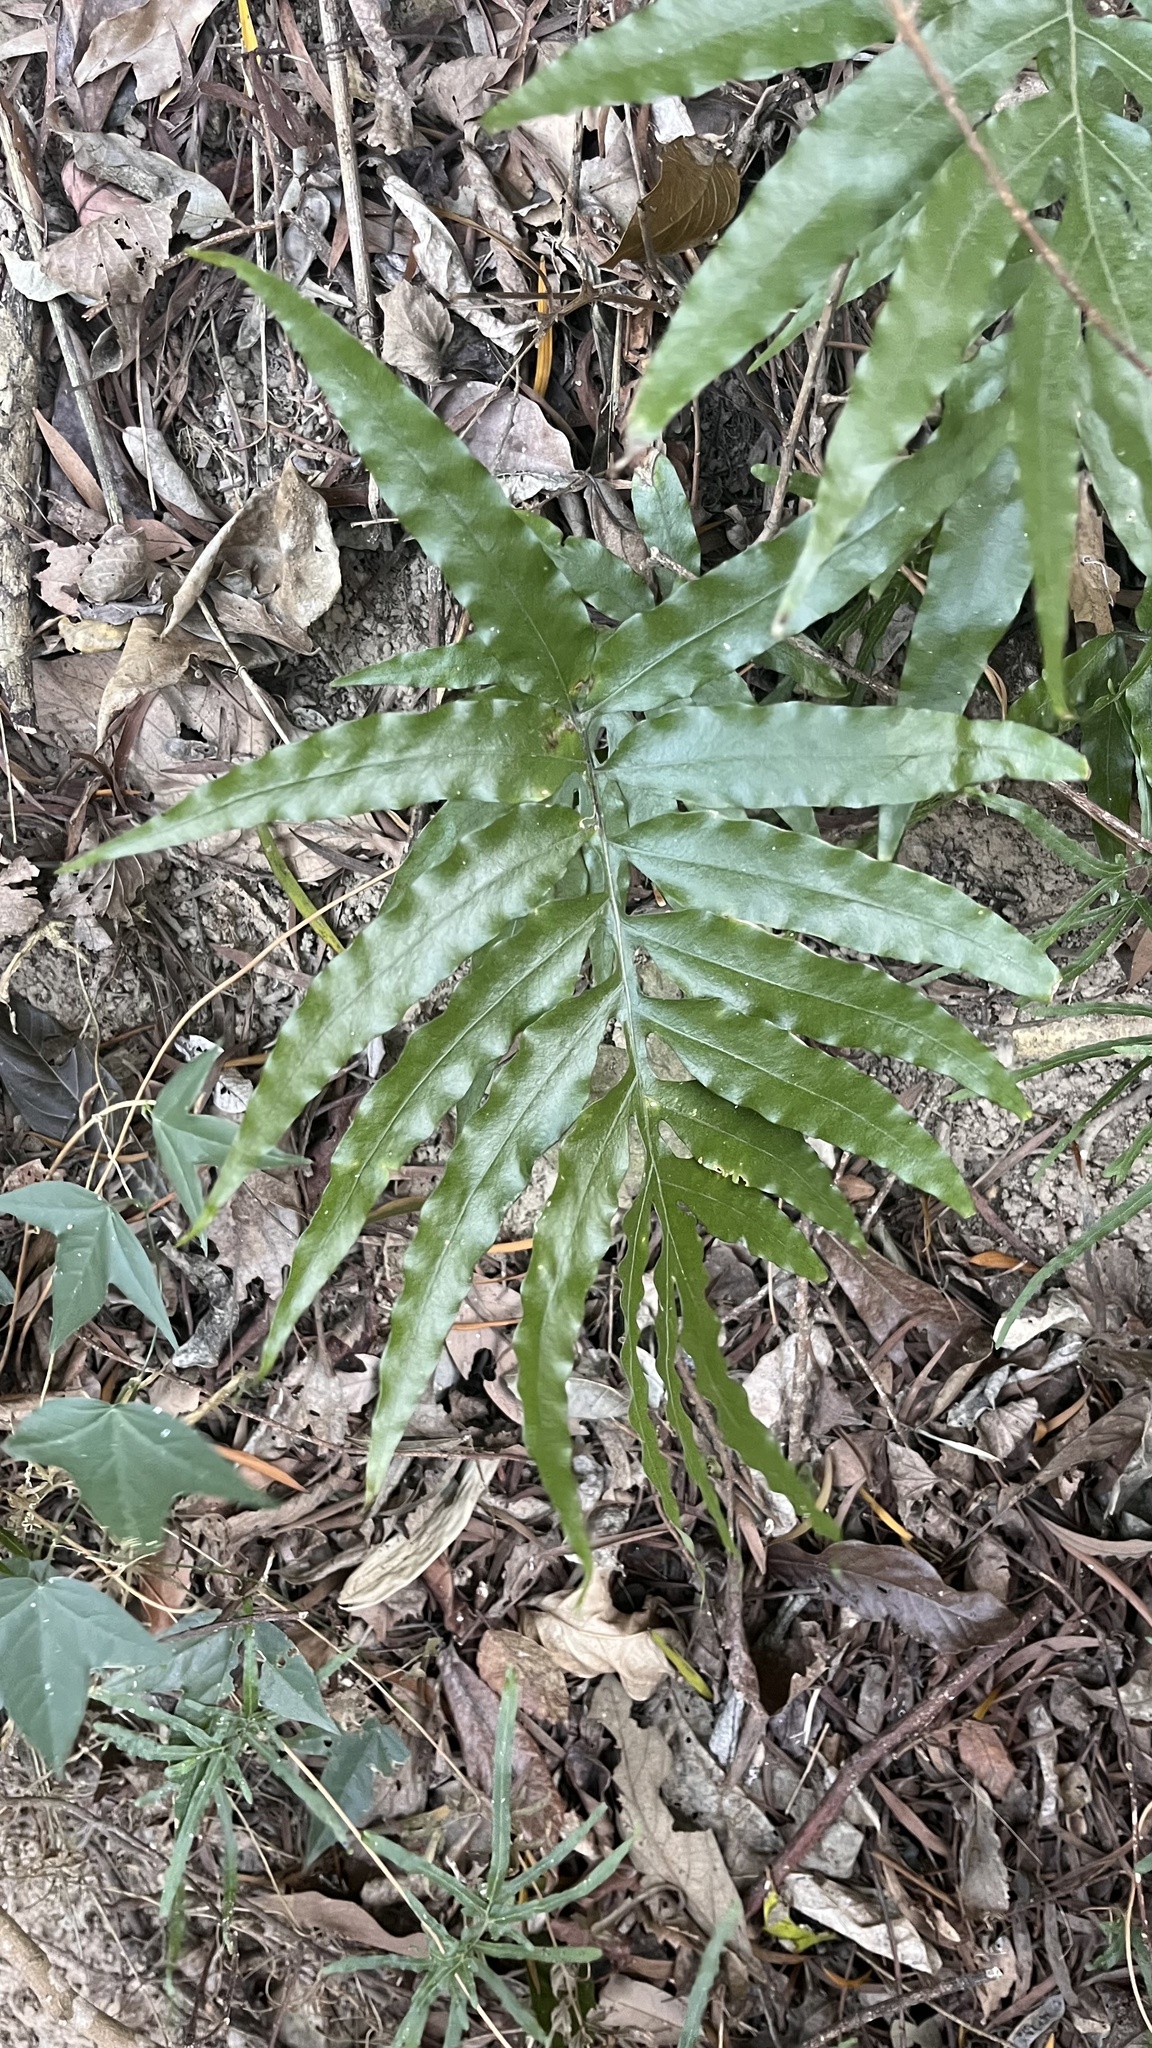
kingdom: Plantae
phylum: Tracheophyta
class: Polypodiopsida
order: Polypodiales
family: Polypodiaceae
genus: Leptochilus
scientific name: Leptochilus ellipticus
